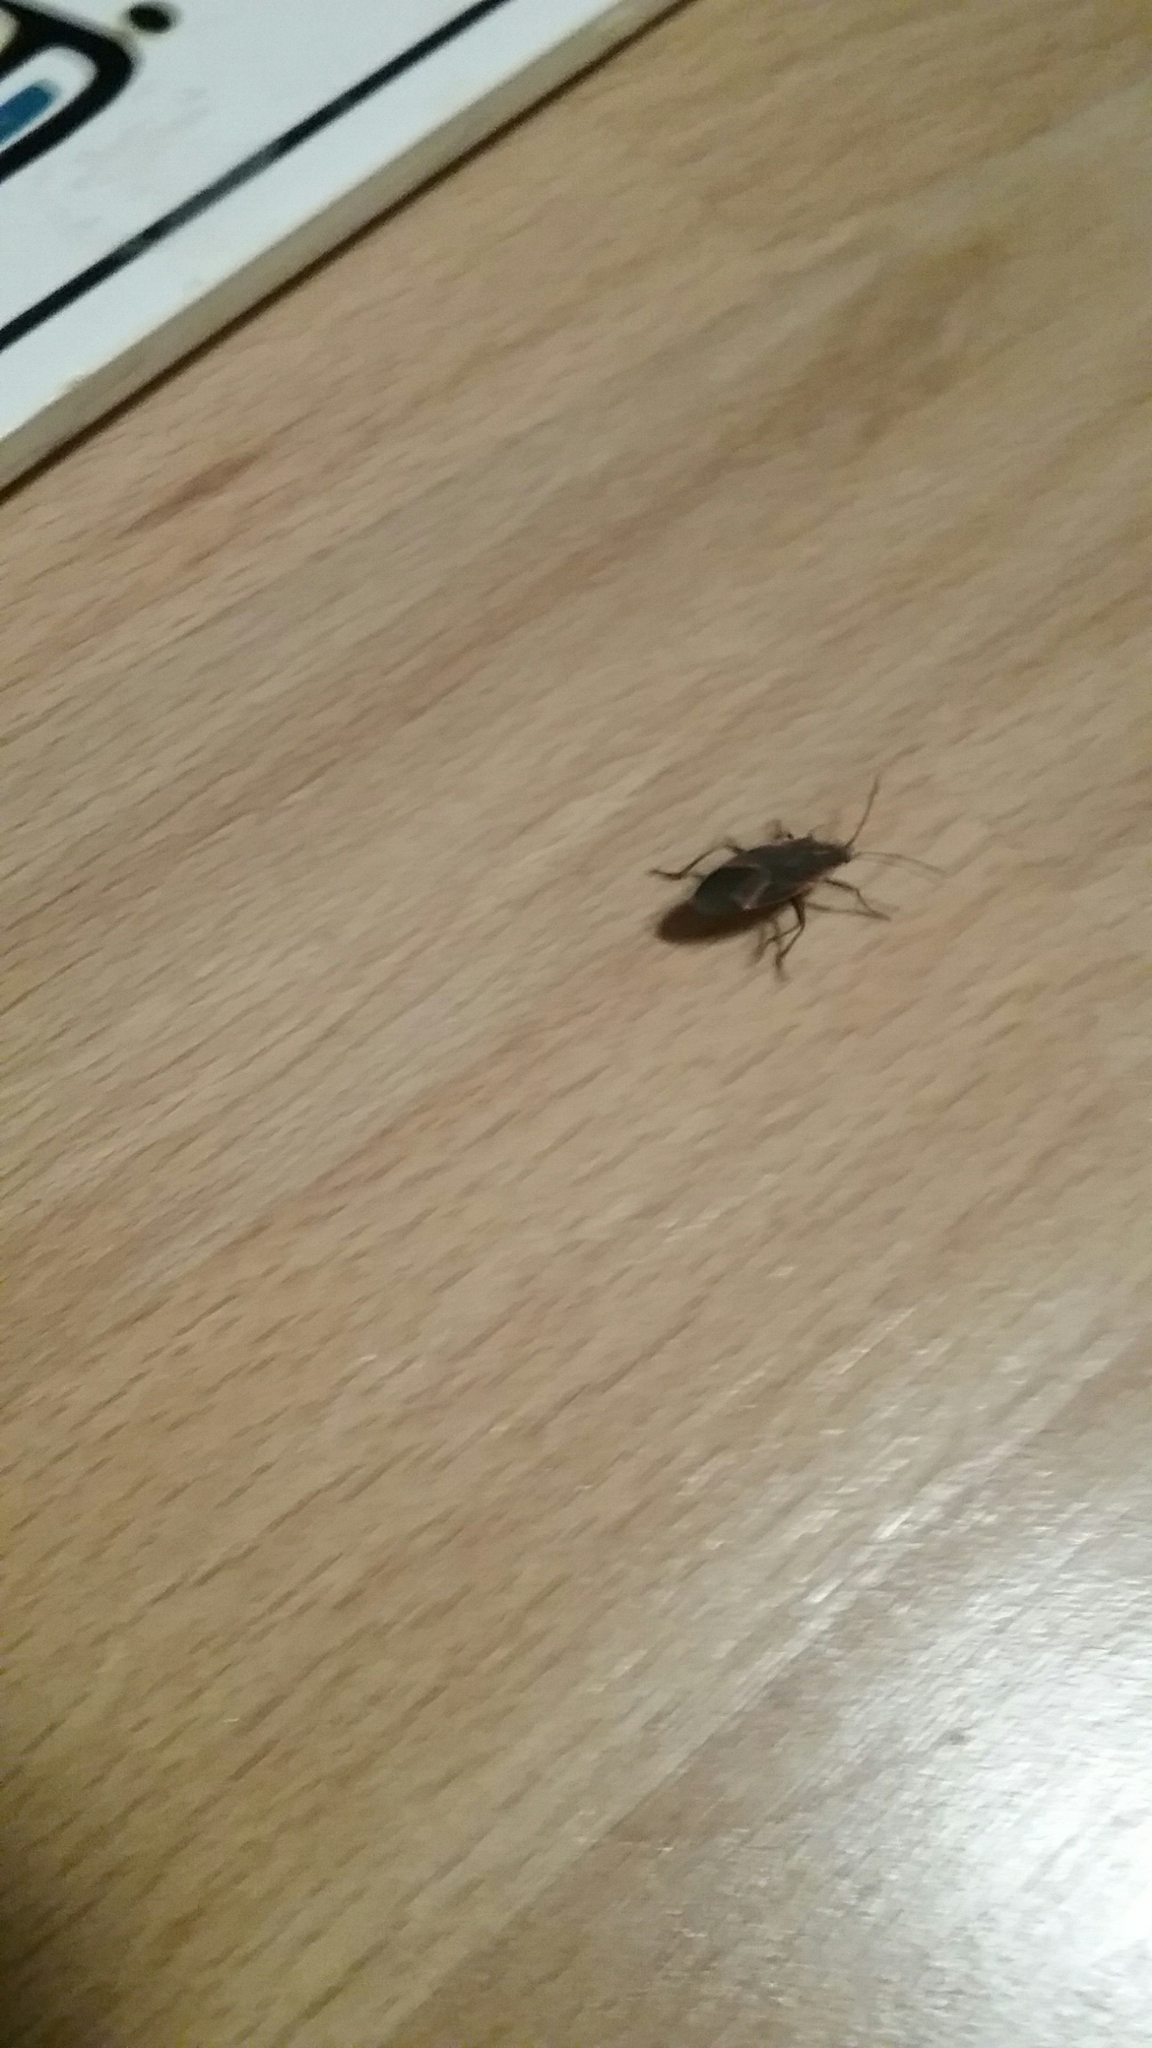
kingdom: Animalia
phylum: Arthropoda
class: Insecta
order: Hemiptera
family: Rhopalidae
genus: Boisea
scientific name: Boisea trivittata
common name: Boxelder bug
